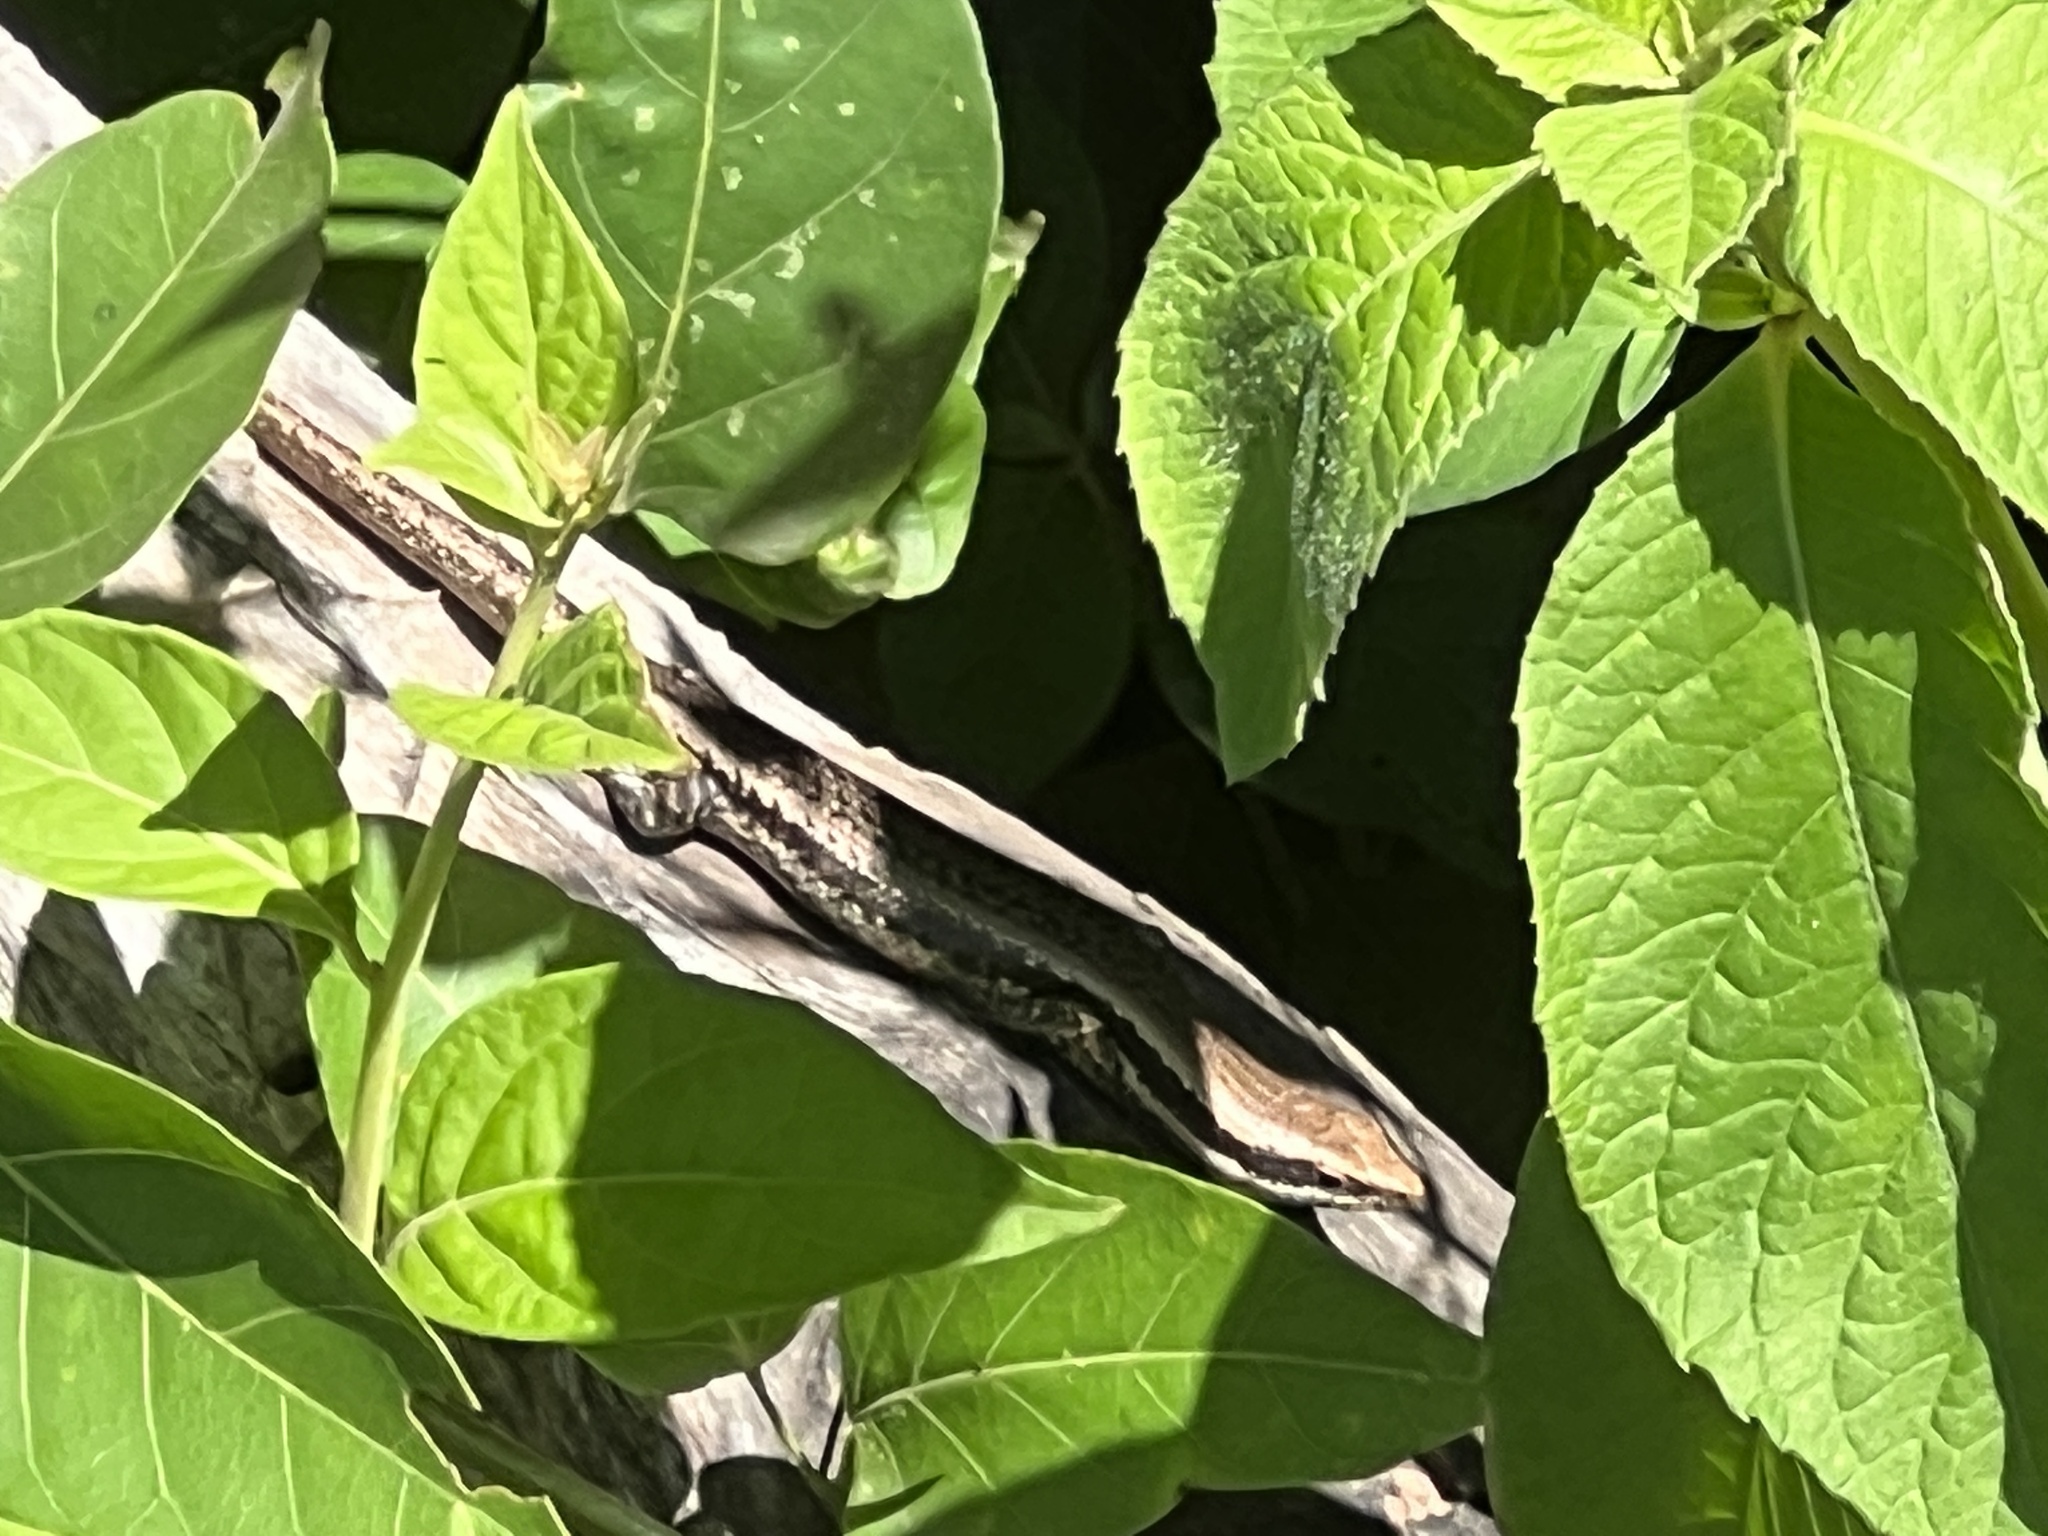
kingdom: Animalia
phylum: Chordata
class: Squamata
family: Scincidae
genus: Notomabuya
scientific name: Notomabuya frenata
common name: Cope's mabuya
